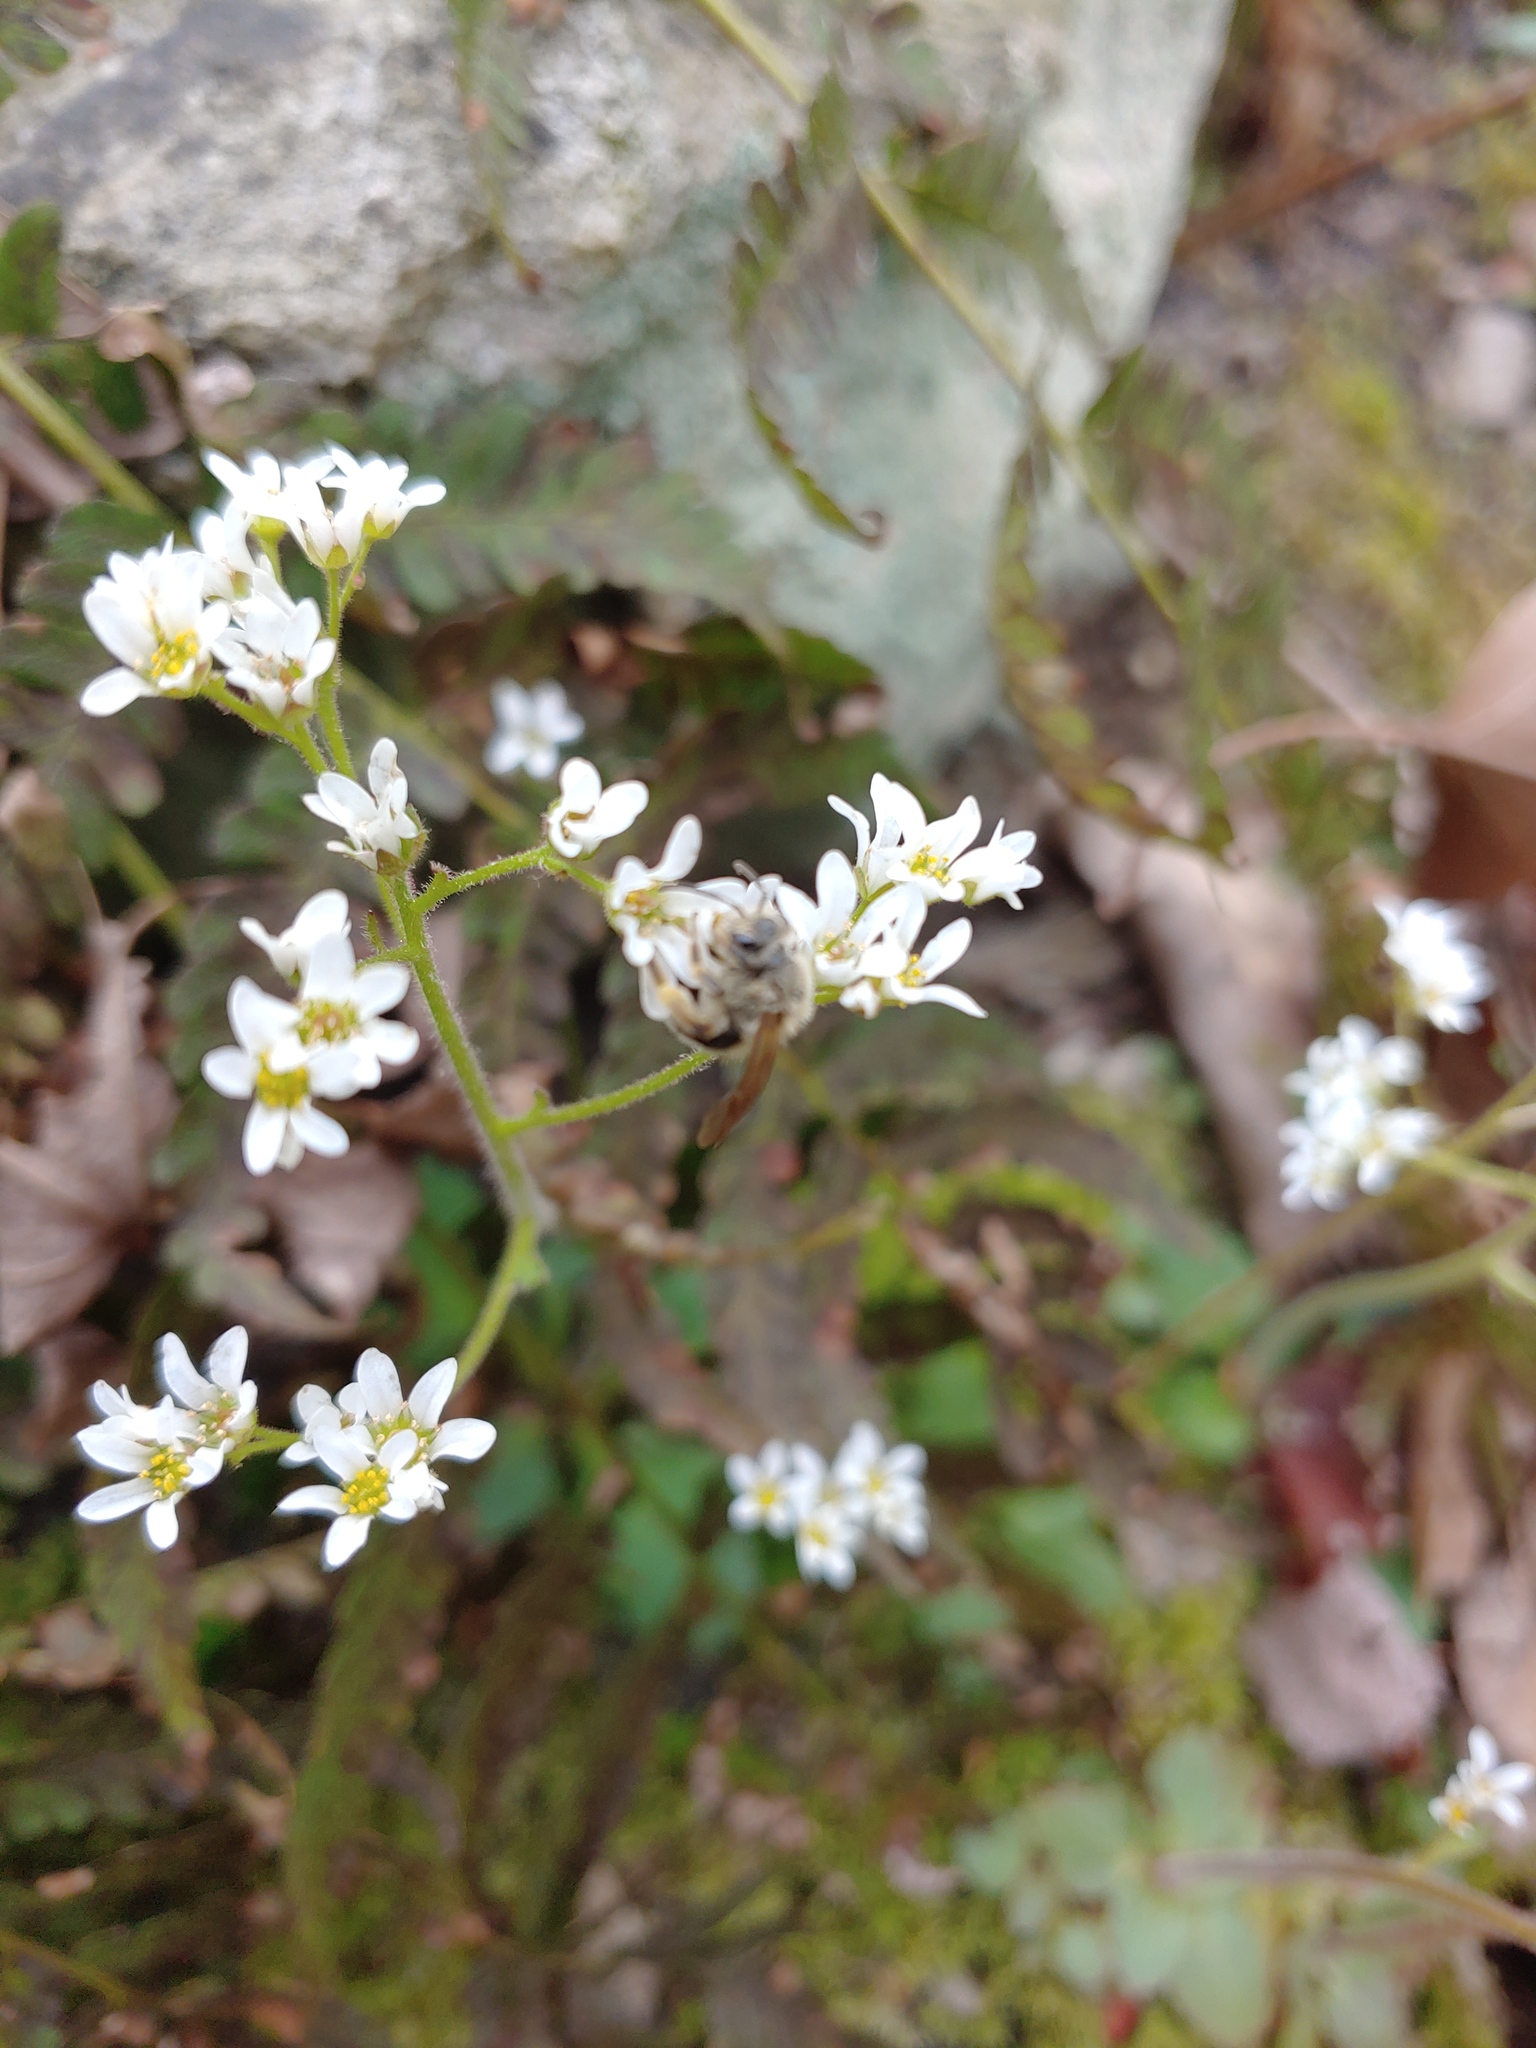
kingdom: Plantae
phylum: Tracheophyta
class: Magnoliopsida
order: Saxifragales
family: Saxifragaceae
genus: Micranthes
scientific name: Micranthes virginiensis
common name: Early saxifrage
